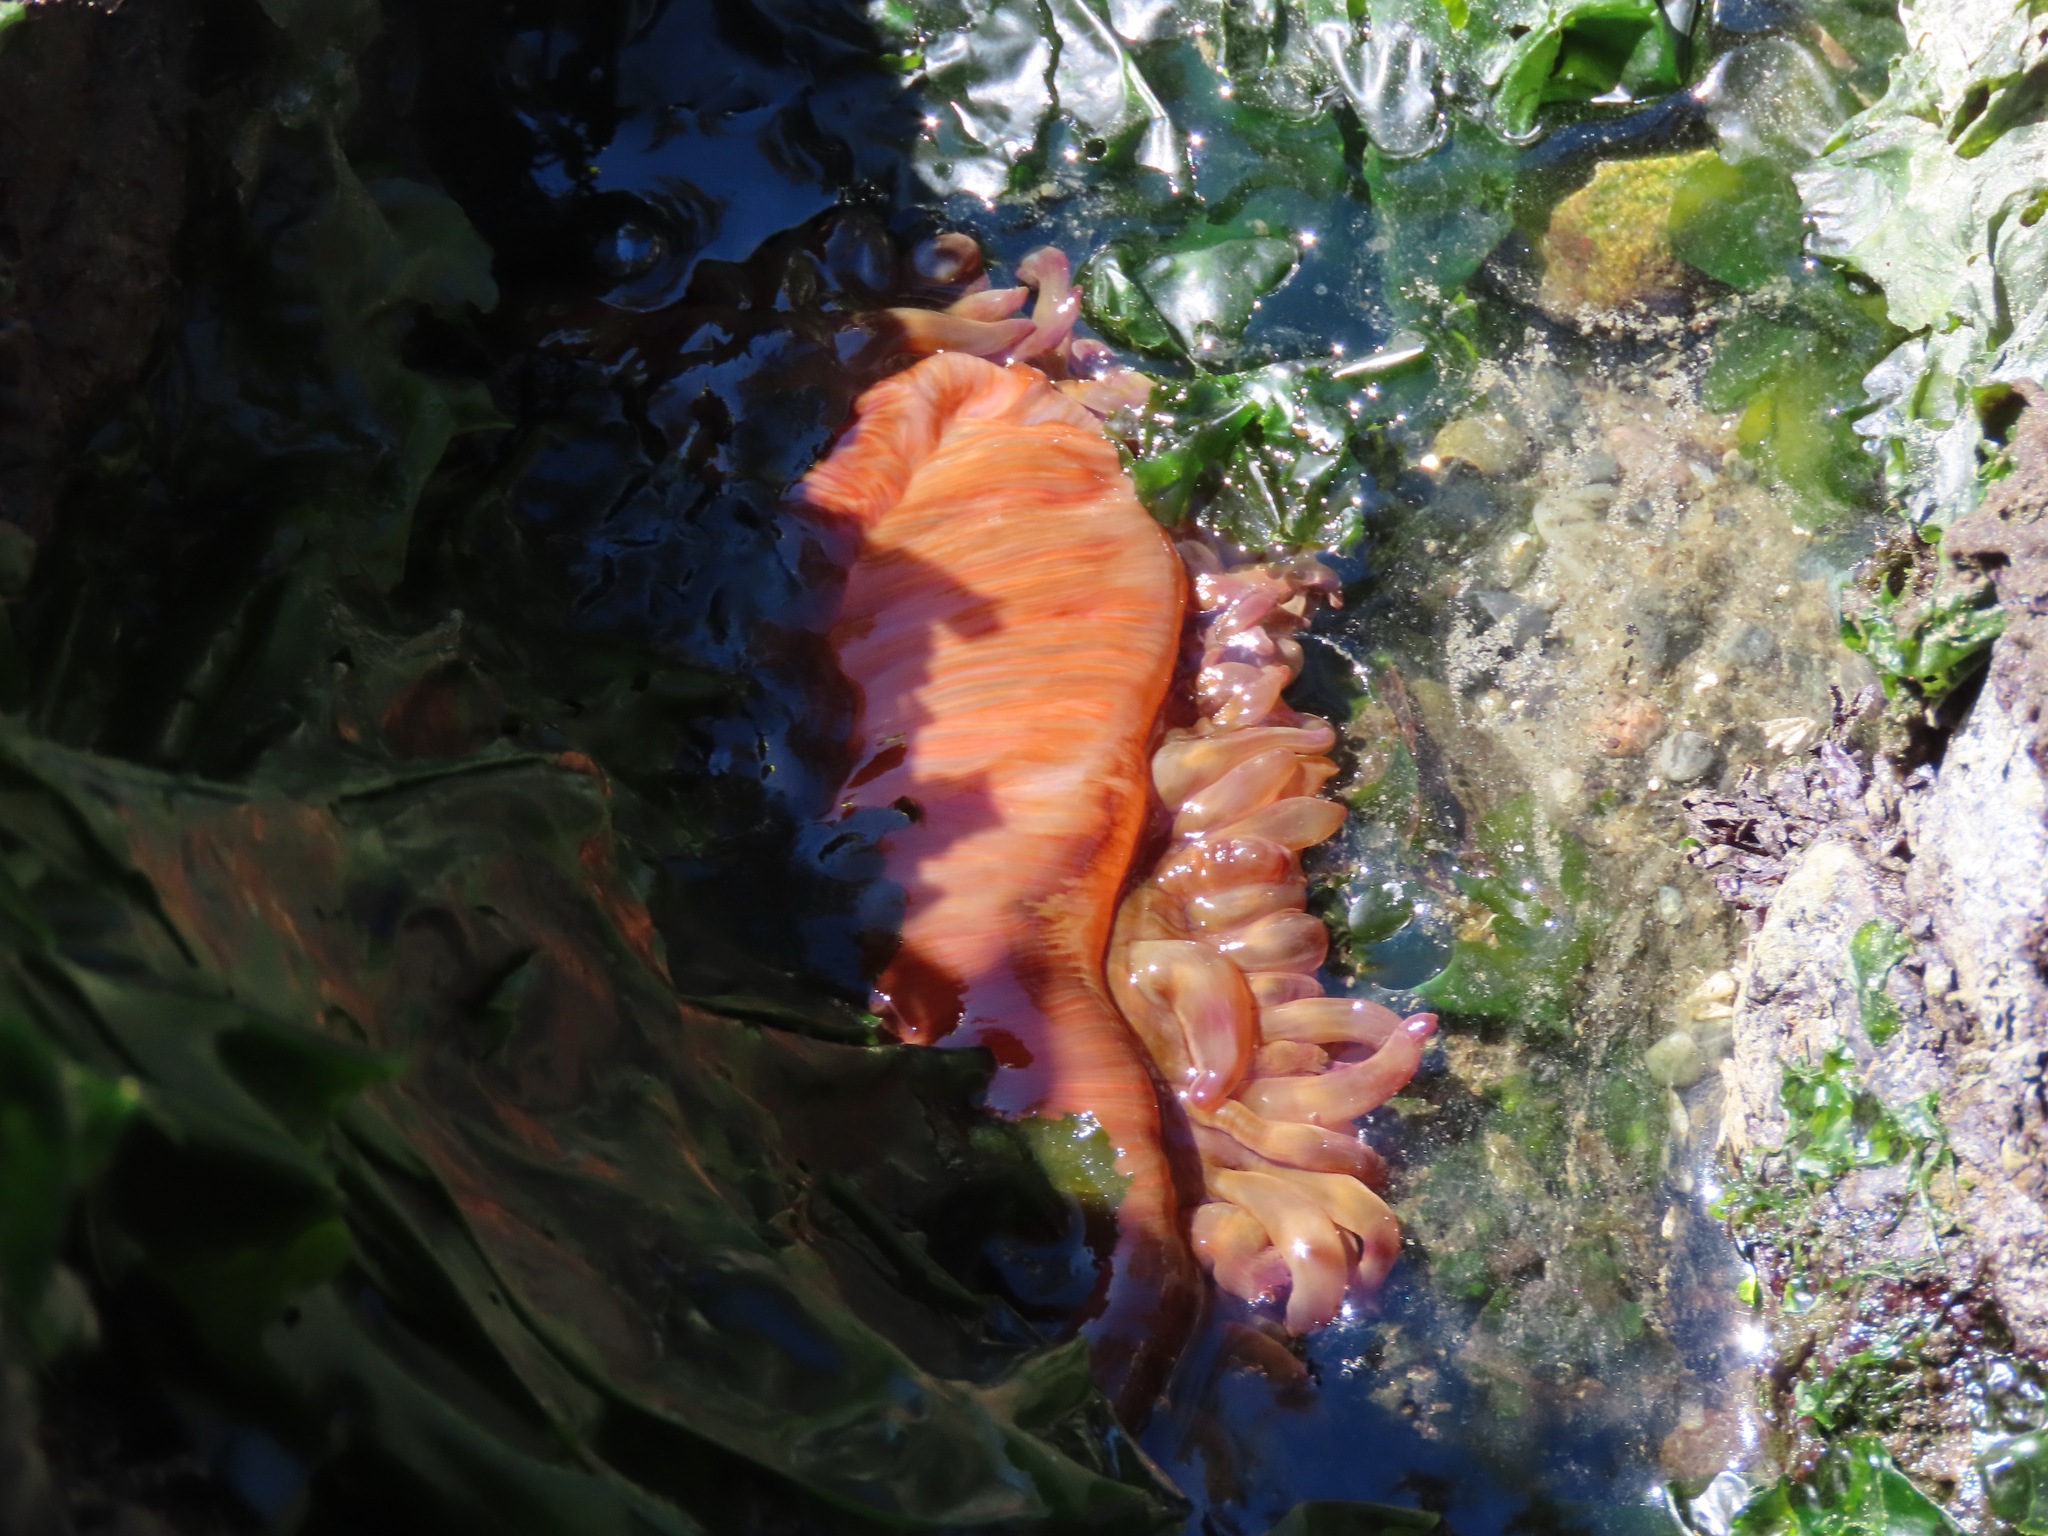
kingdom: Animalia
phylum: Cnidaria
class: Anthozoa
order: Actiniaria
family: Actiniidae
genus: Urticina
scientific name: Urticina grebelnyi
